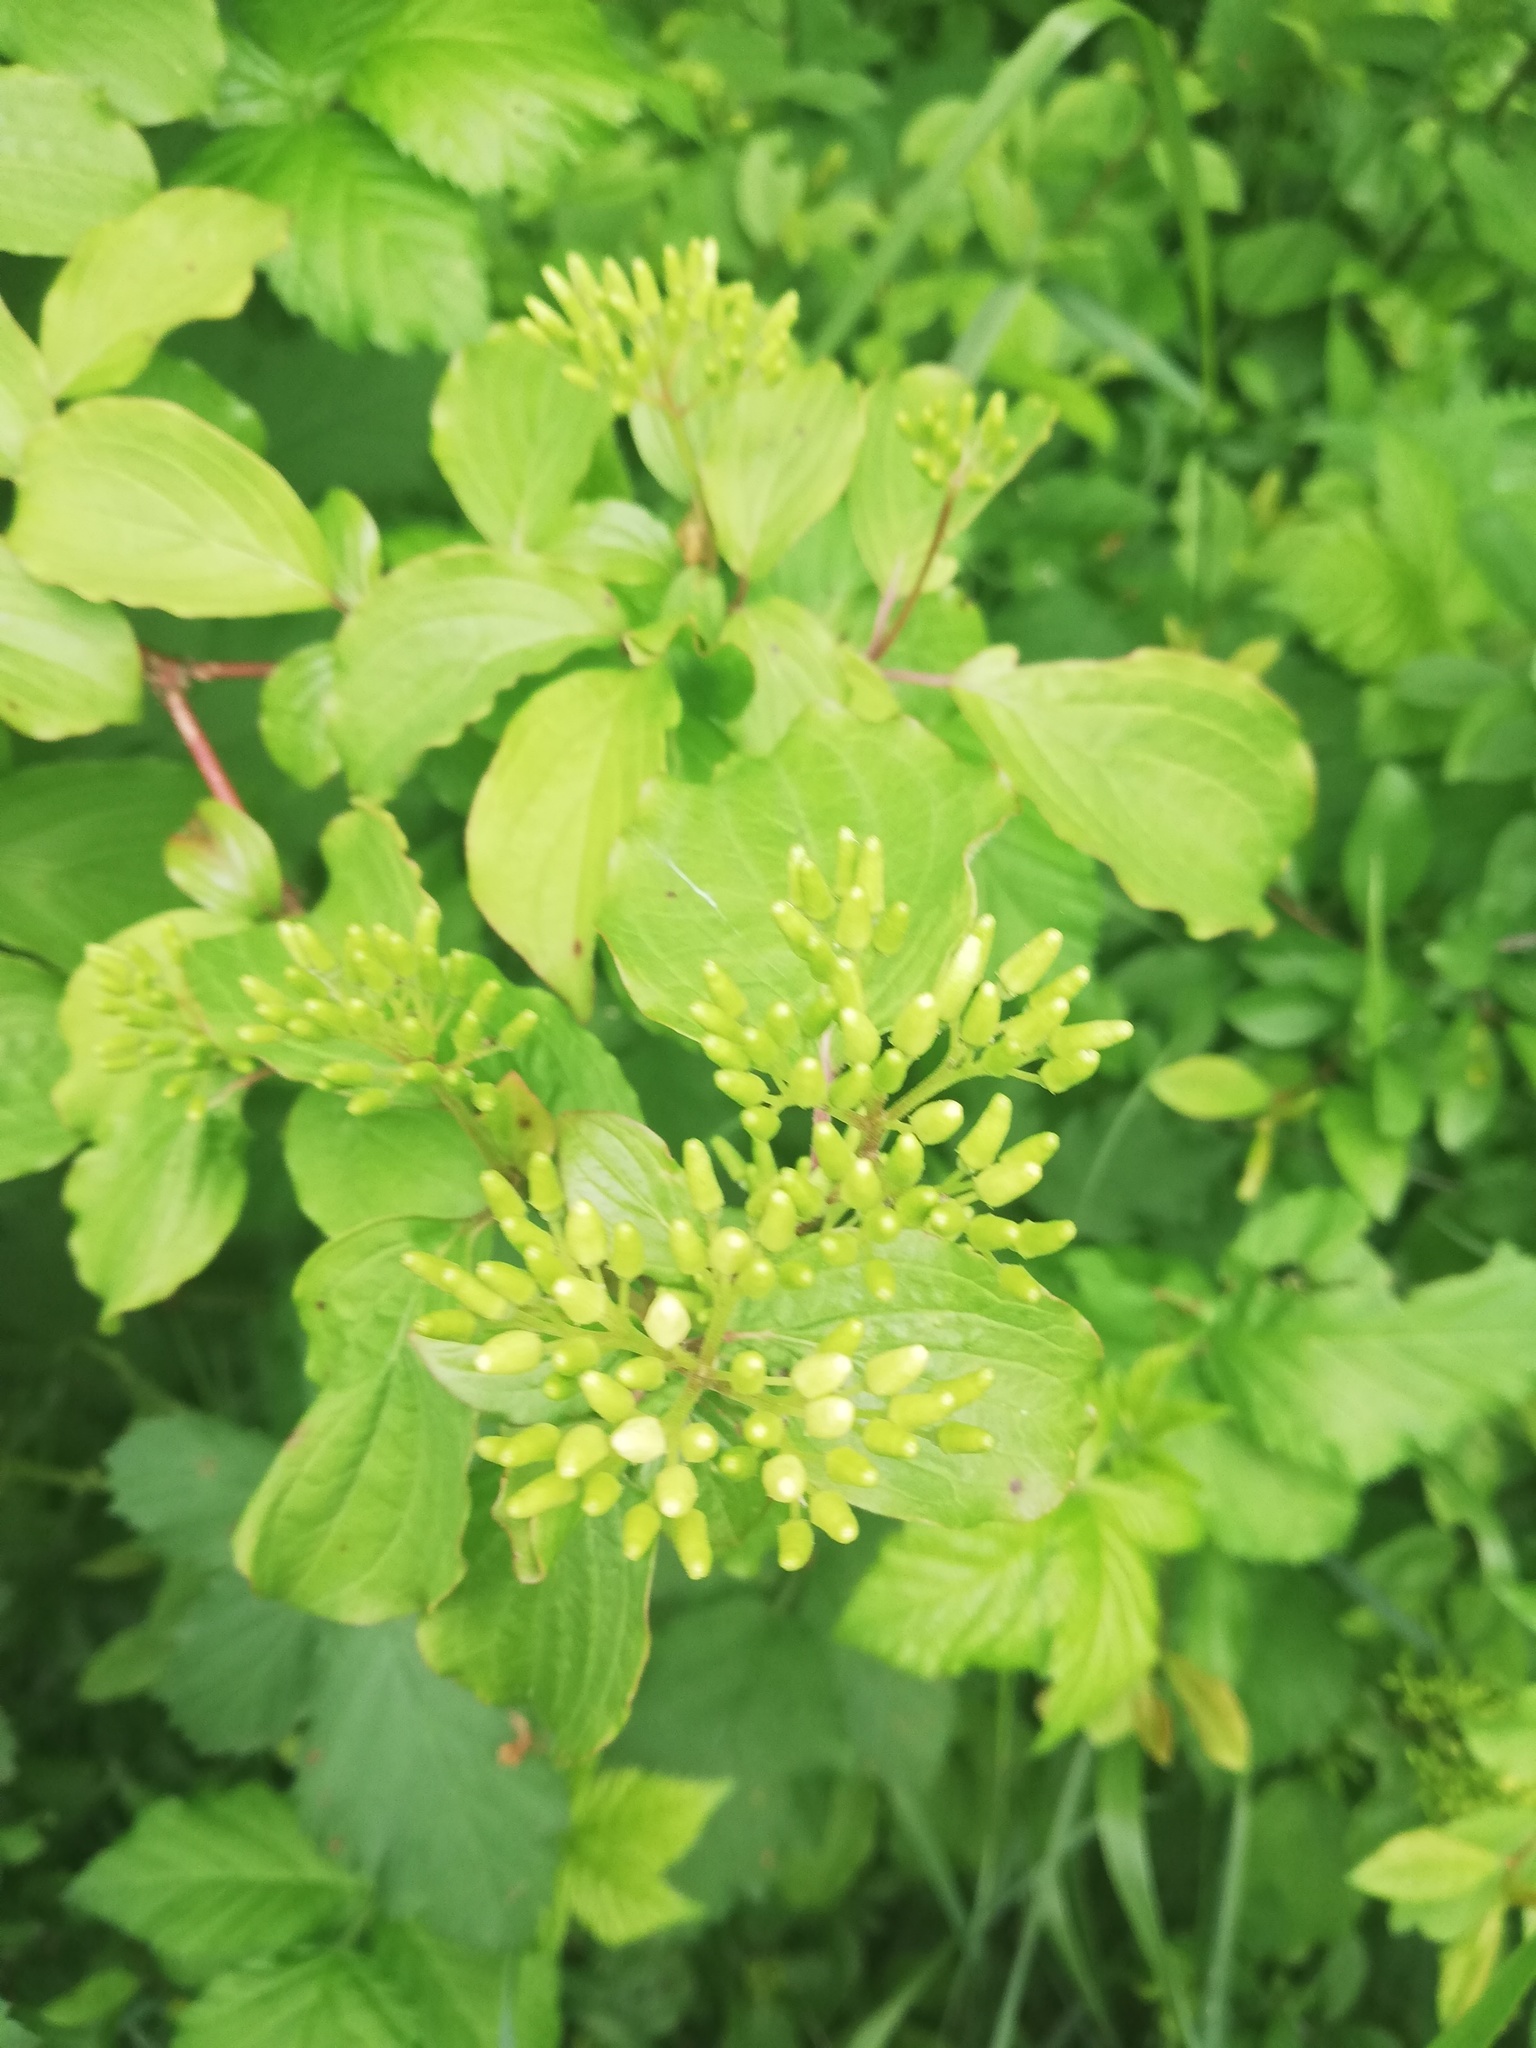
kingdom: Plantae
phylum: Tracheophyta
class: Magnoliopsida
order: Cornales
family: Cornaceae
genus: Cornus
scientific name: Cornus sanguinea
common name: Dogwood
